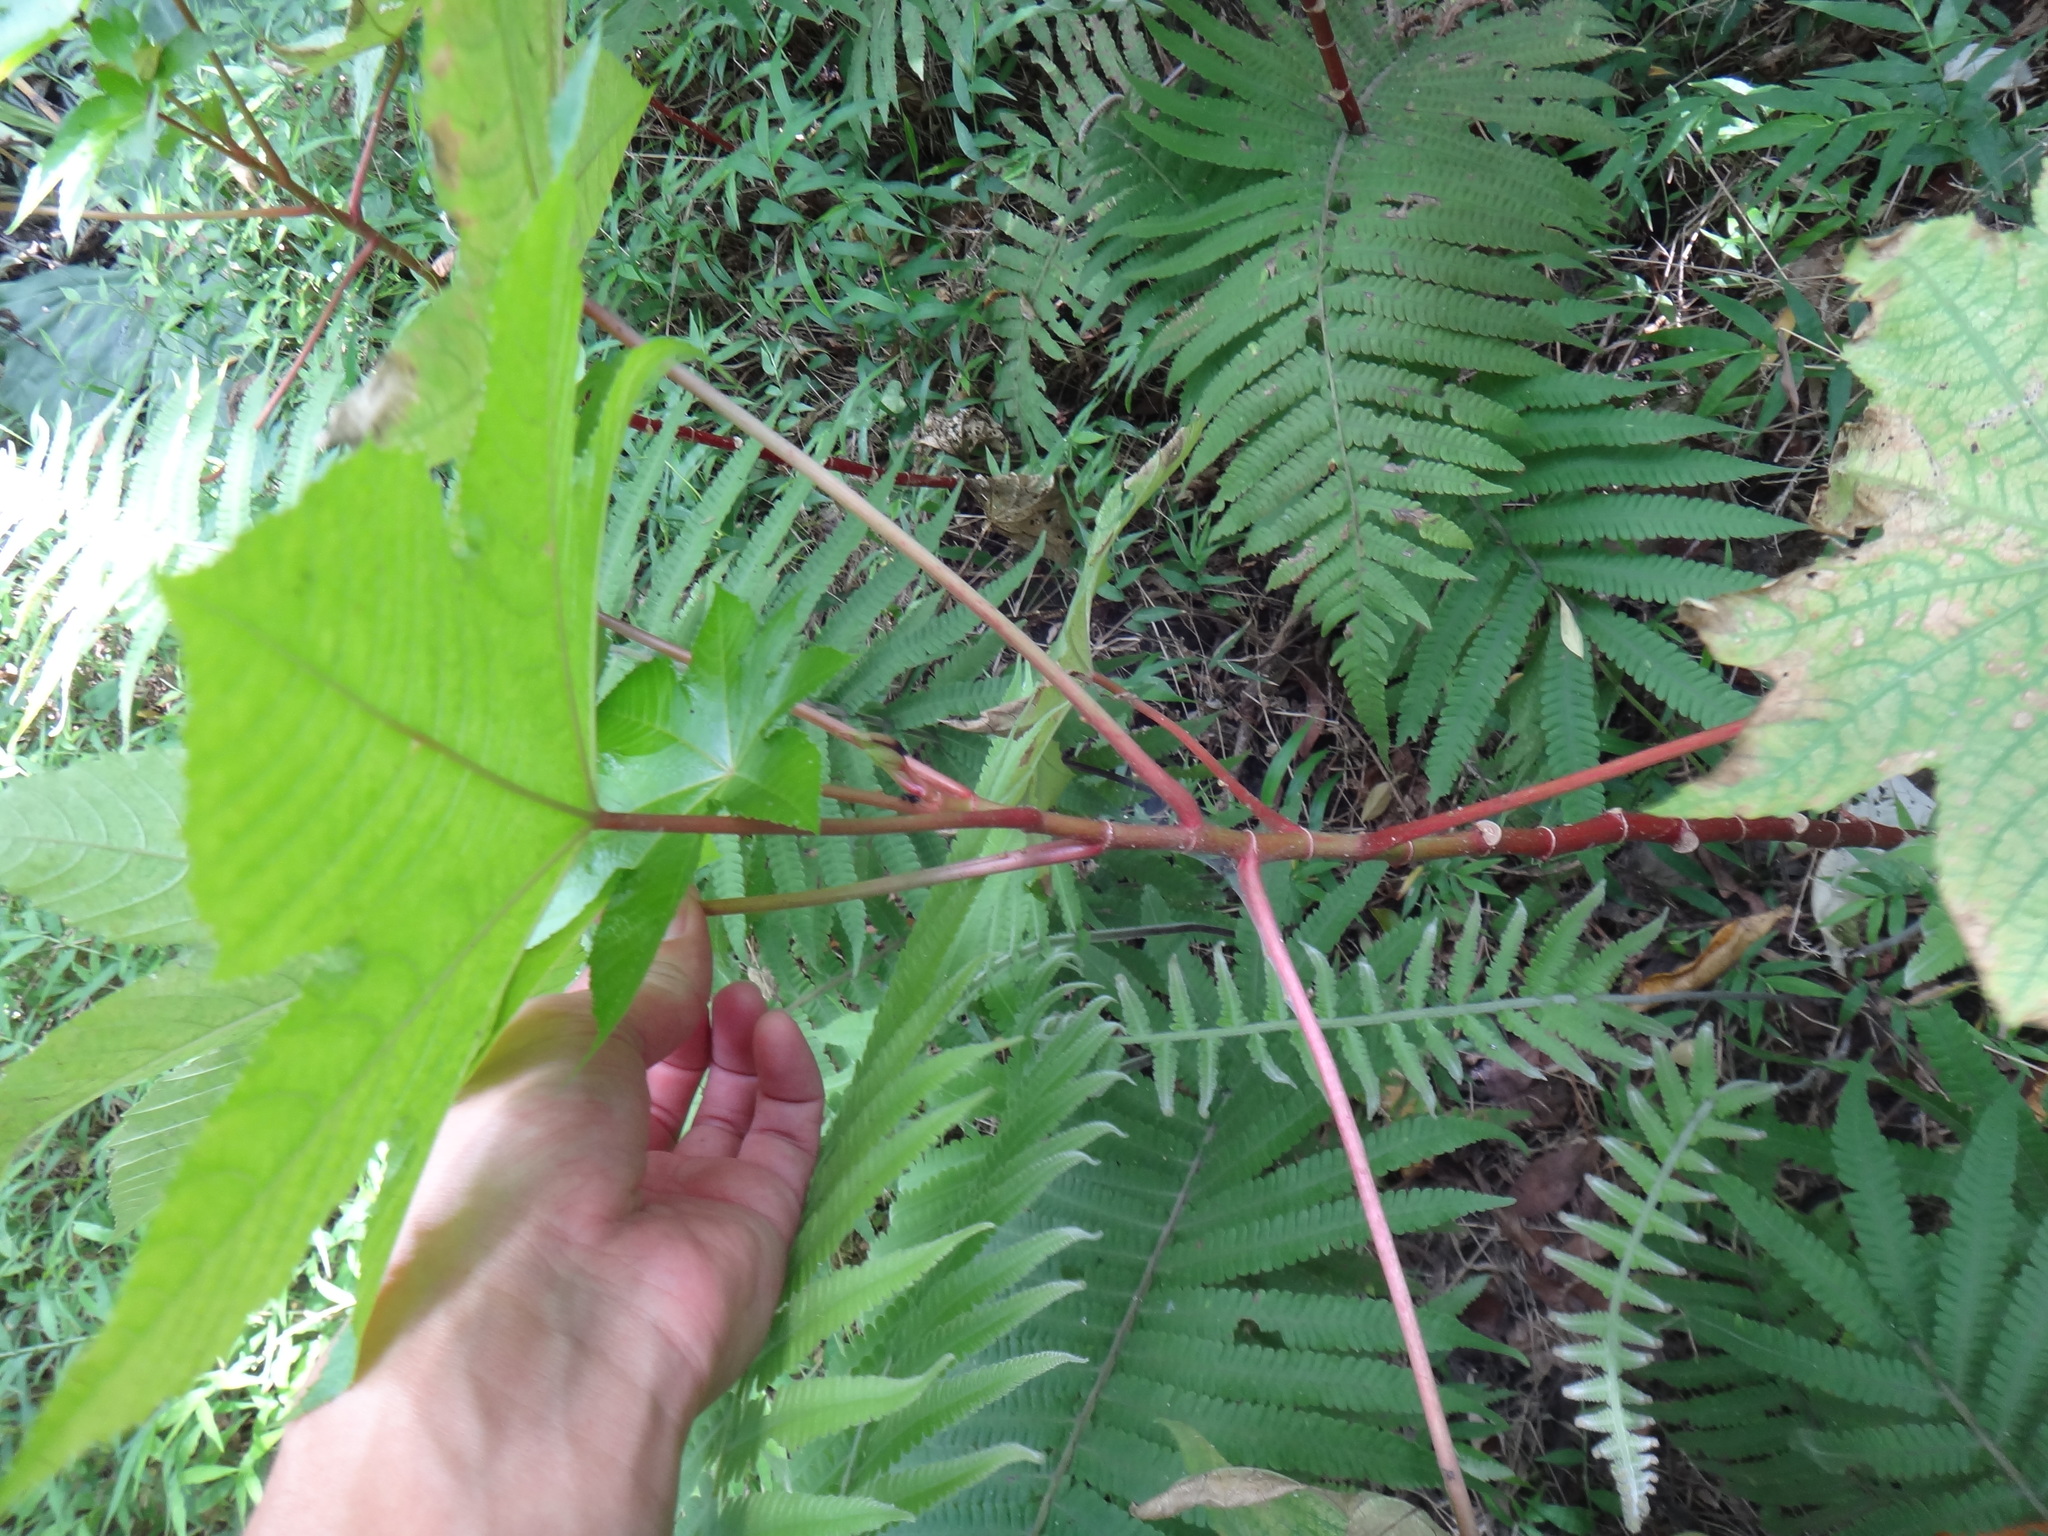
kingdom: Plantae
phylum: Tracheophyta
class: Magnoliopsida
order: Malpighiales
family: Euphorbiaceae
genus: Ricinus
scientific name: Ricinus communis
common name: Castor-oil-plant
